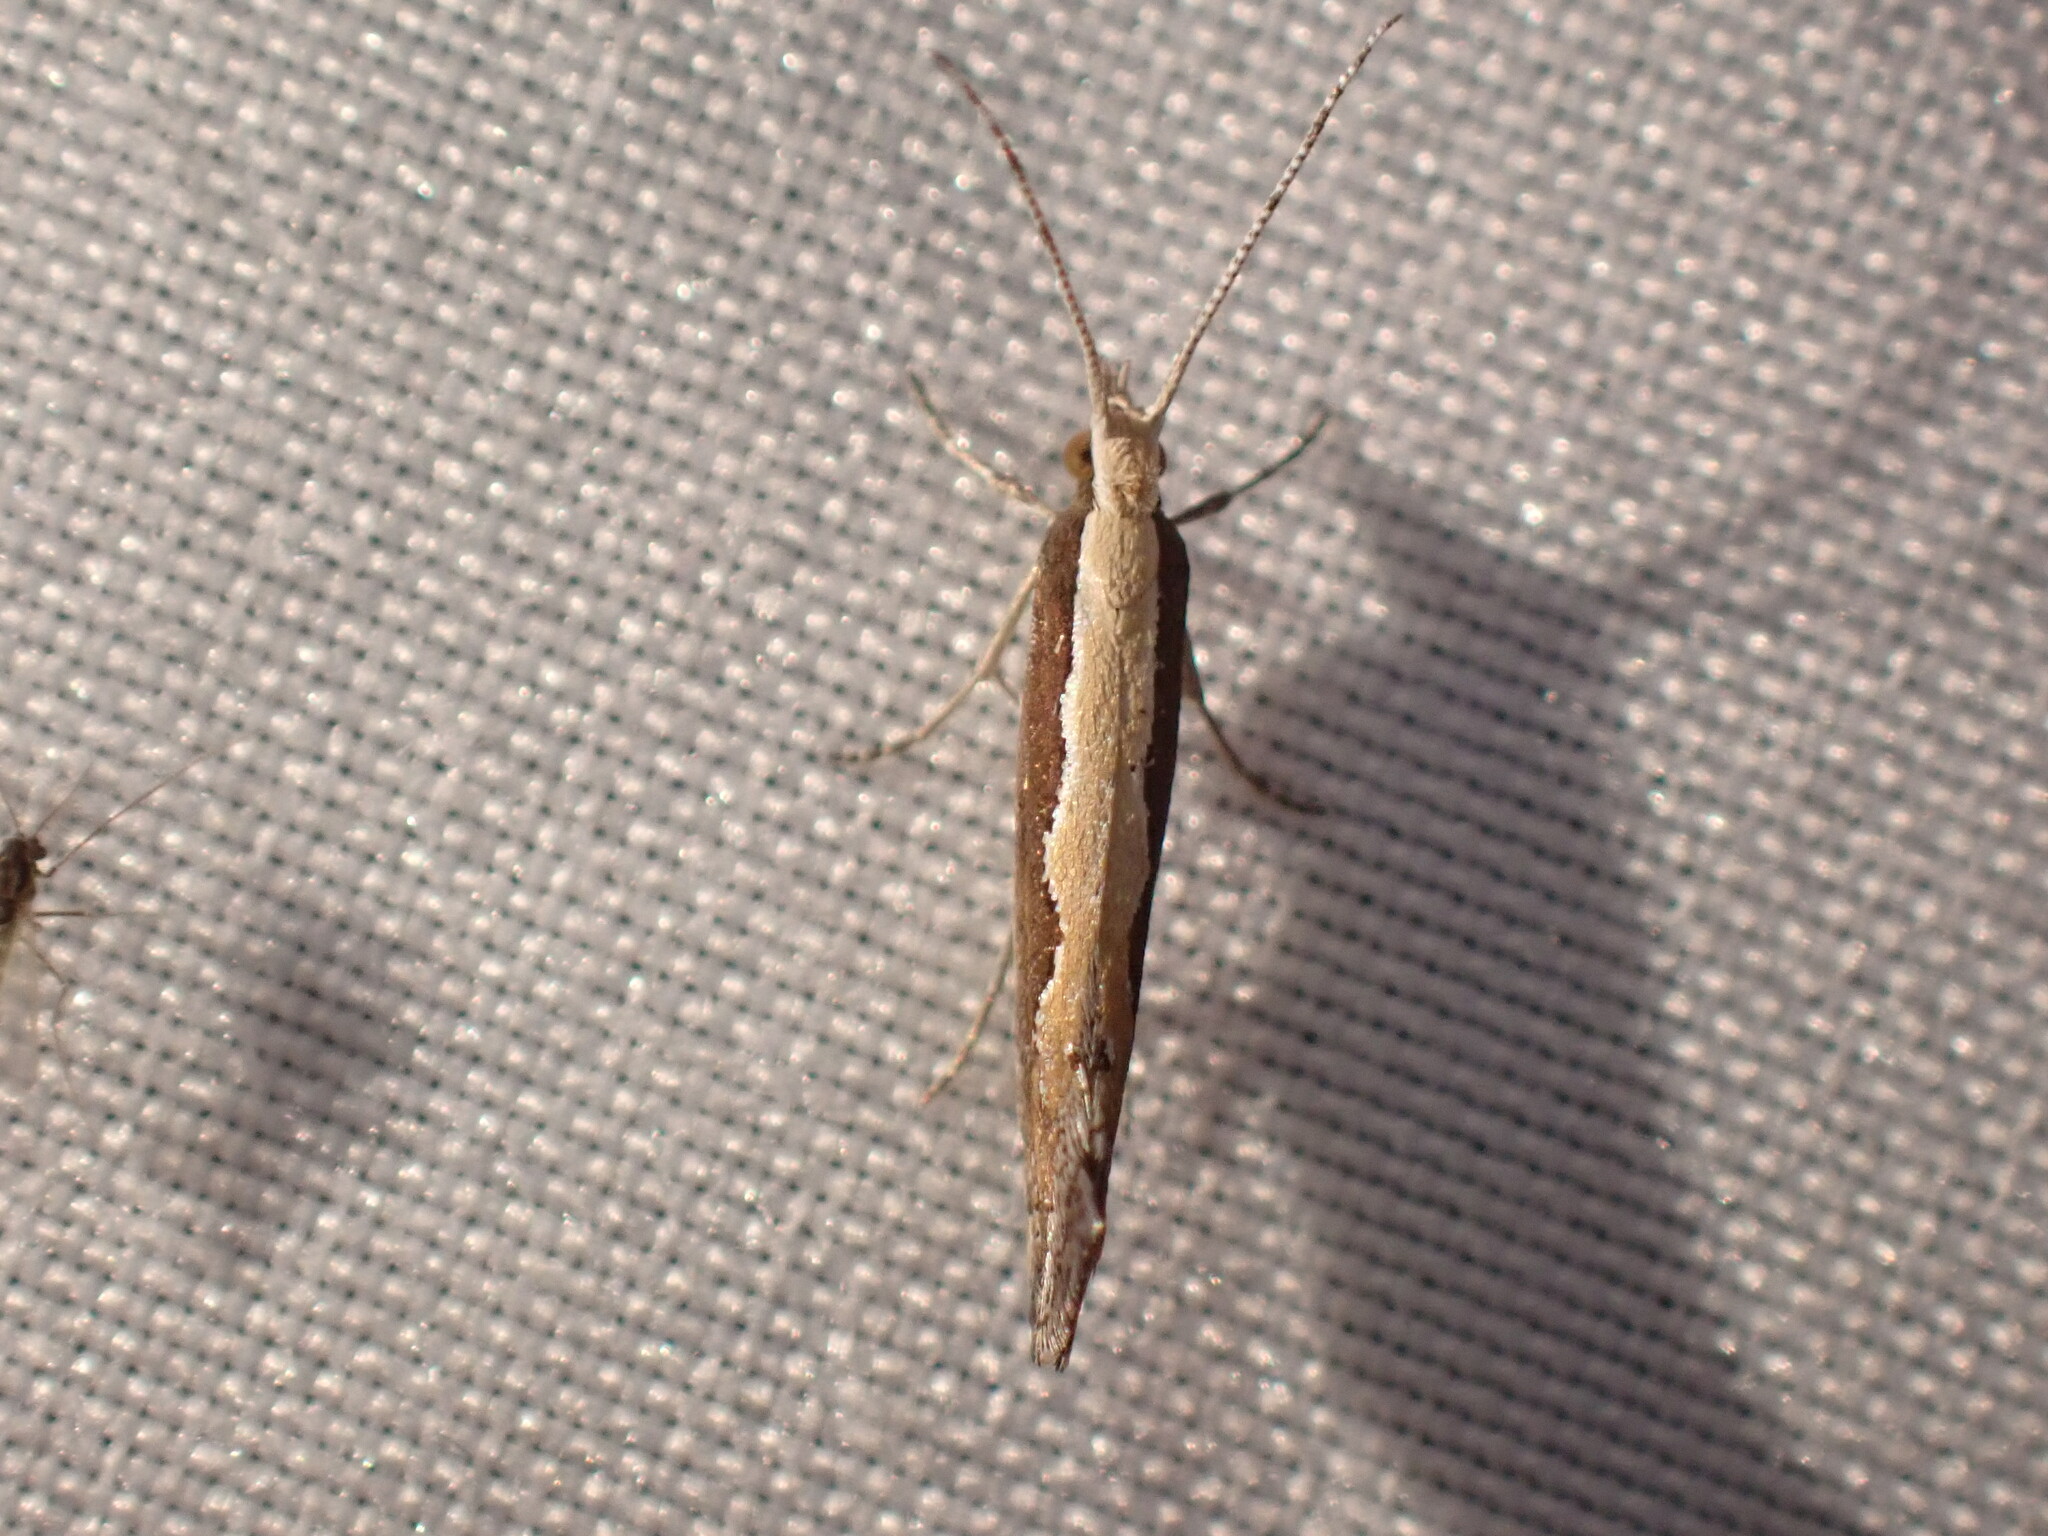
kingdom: Animalia
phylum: Arthropoda
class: Insecta
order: Lepidoptera
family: Plutellidae
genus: Plutella
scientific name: Plutella xylostella
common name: Diamond-back moth
